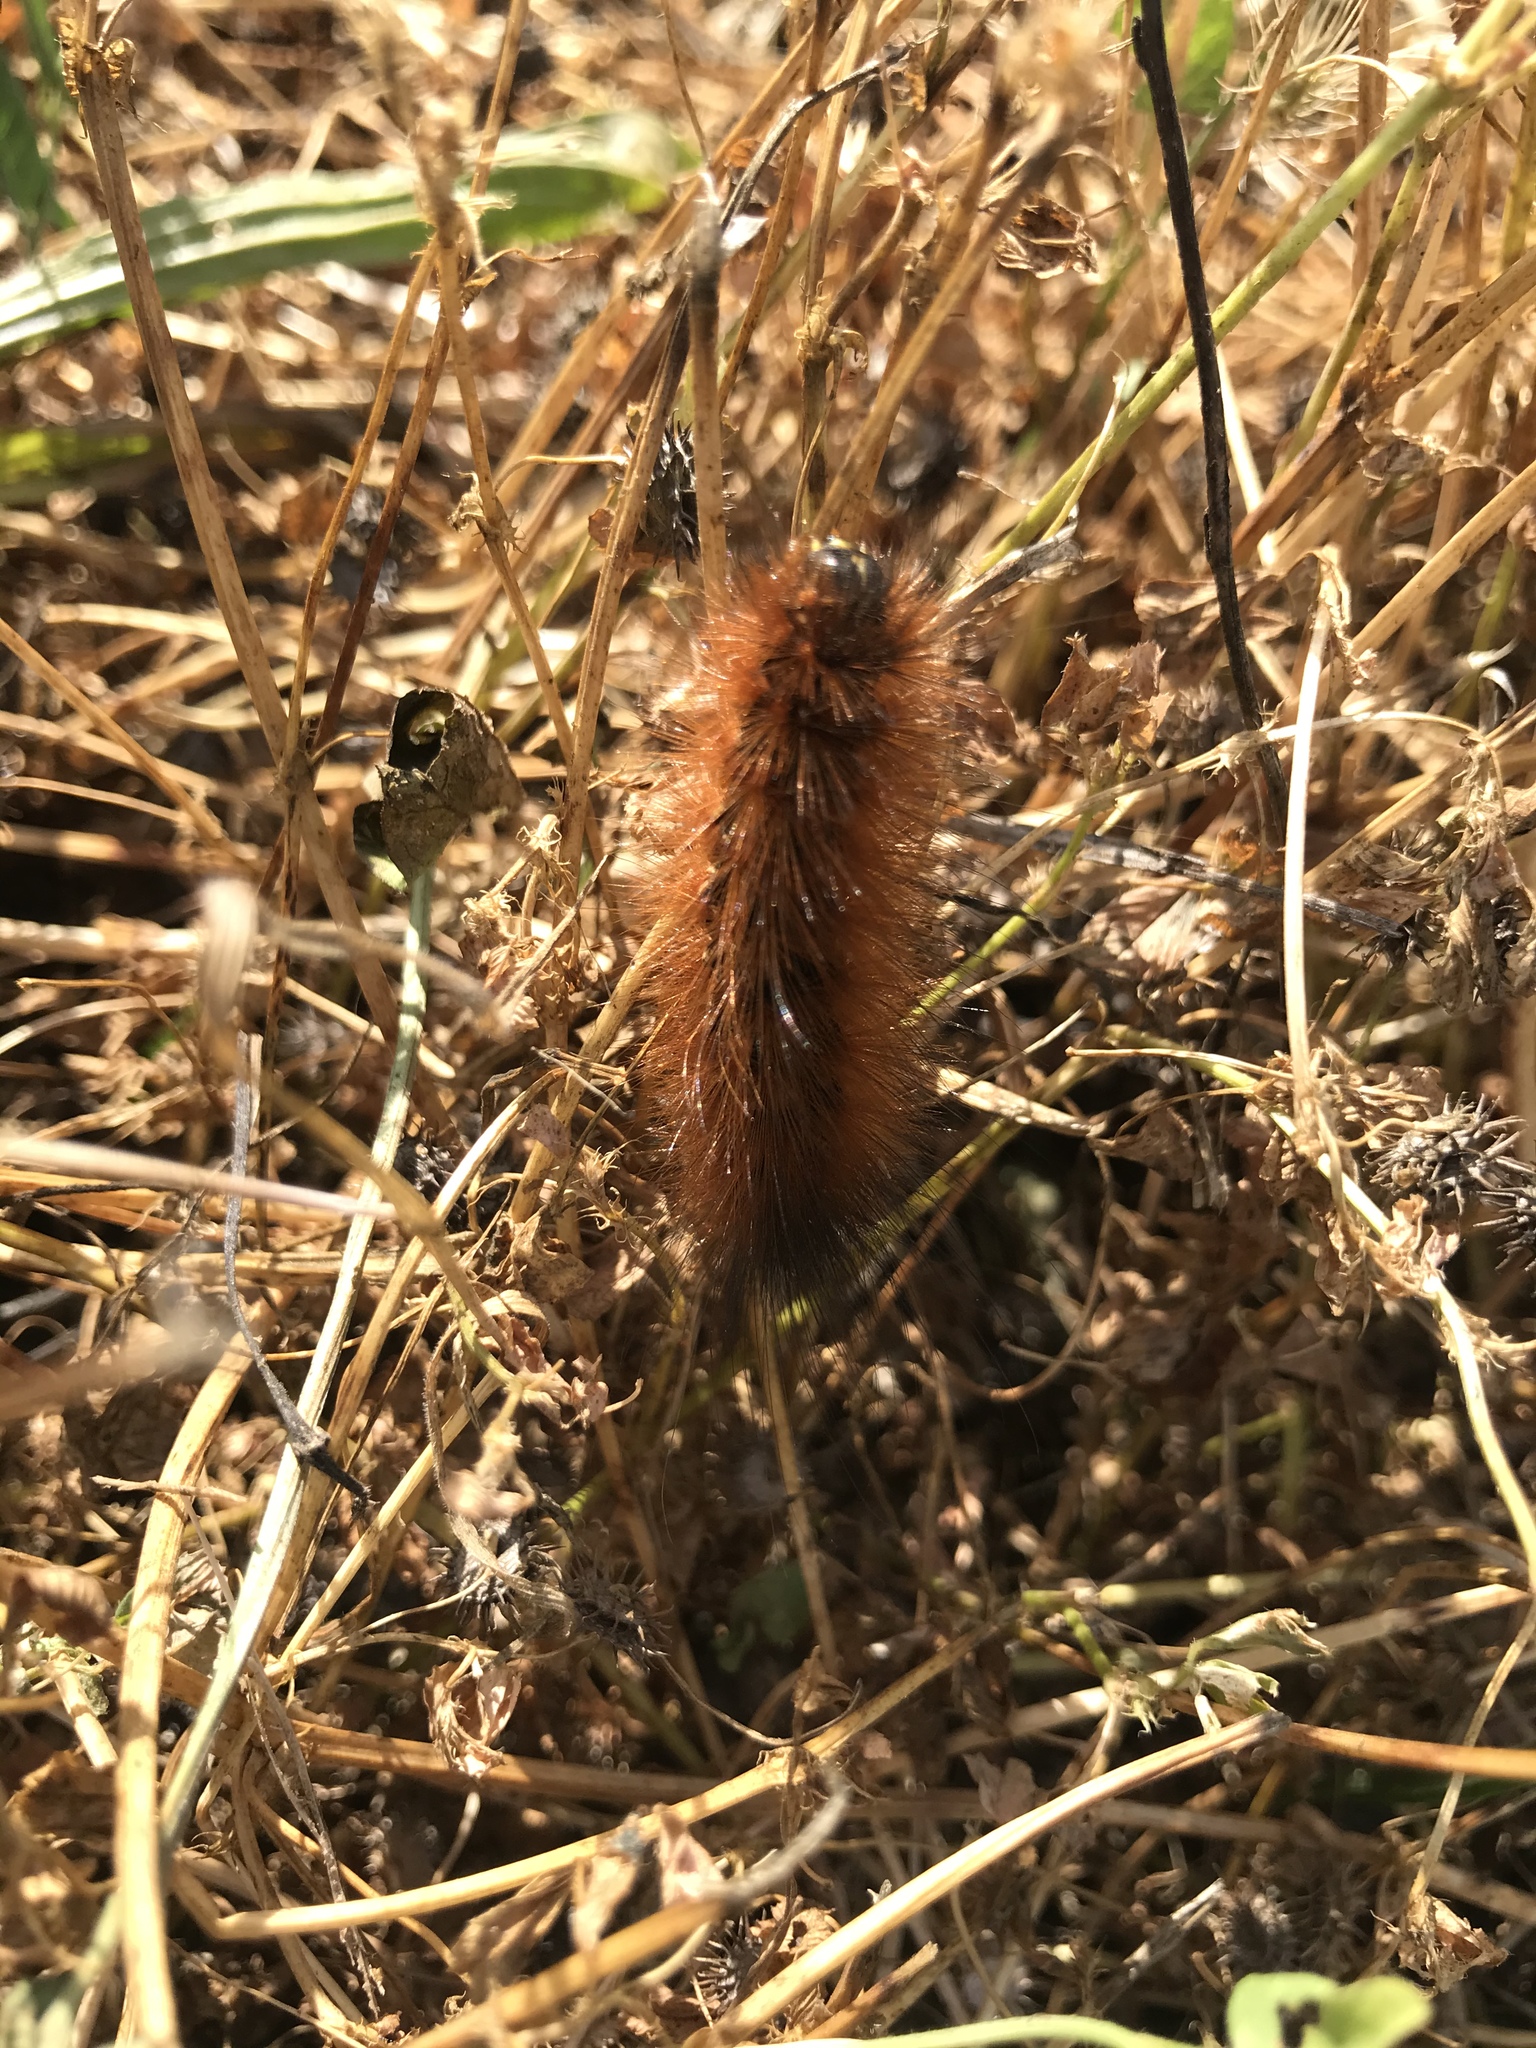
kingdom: Animalia
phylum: Arthropoda
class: Insecta
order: Lepidoptera
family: Erebidae
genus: Estigmene
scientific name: Estigmene acrea
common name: Salt marsh moth
